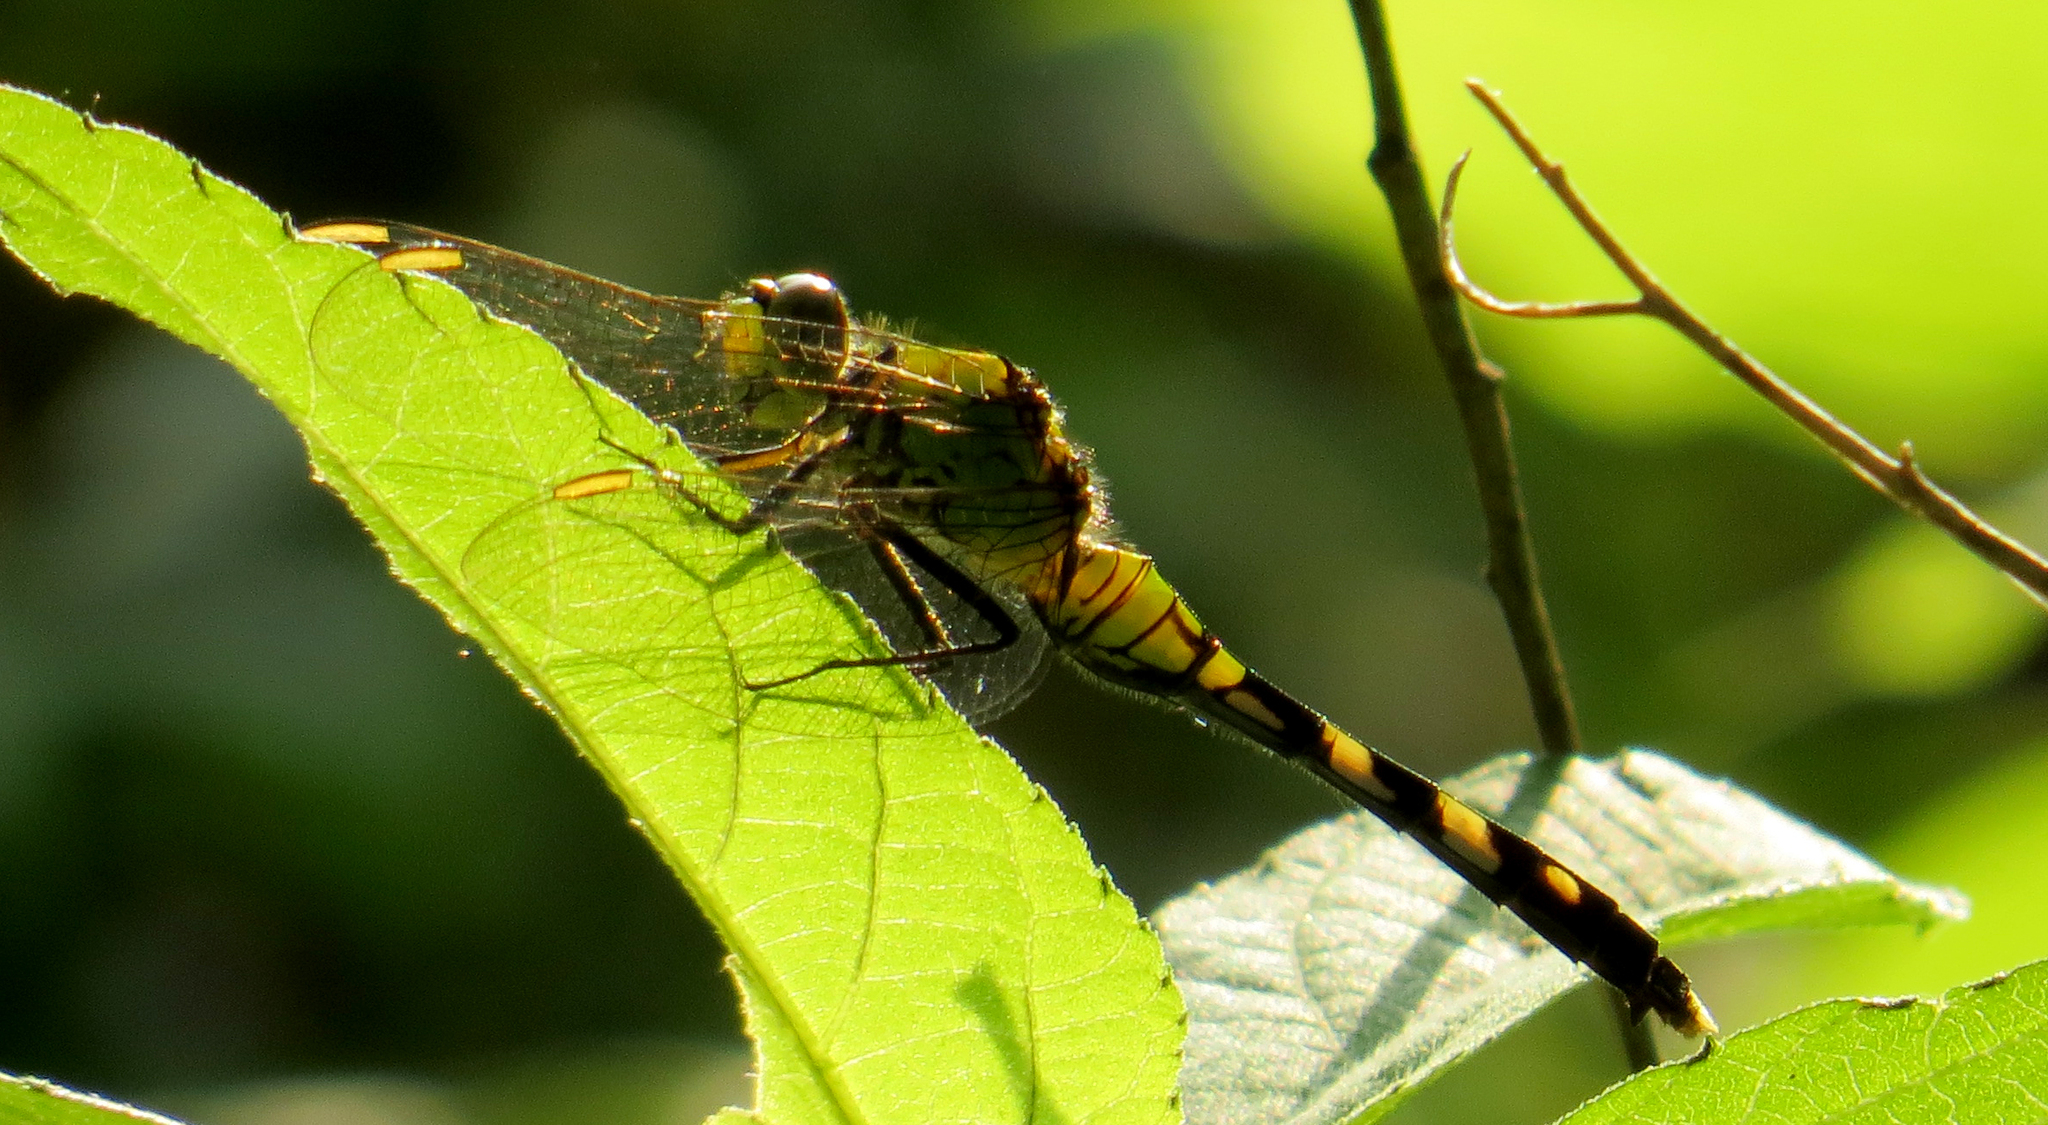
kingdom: Animalia
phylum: Arthropoda
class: Insecta
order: Odonata
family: Libellulidae
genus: Erythemis
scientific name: Erythemis simplicicollis
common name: Eastern pondhawk
